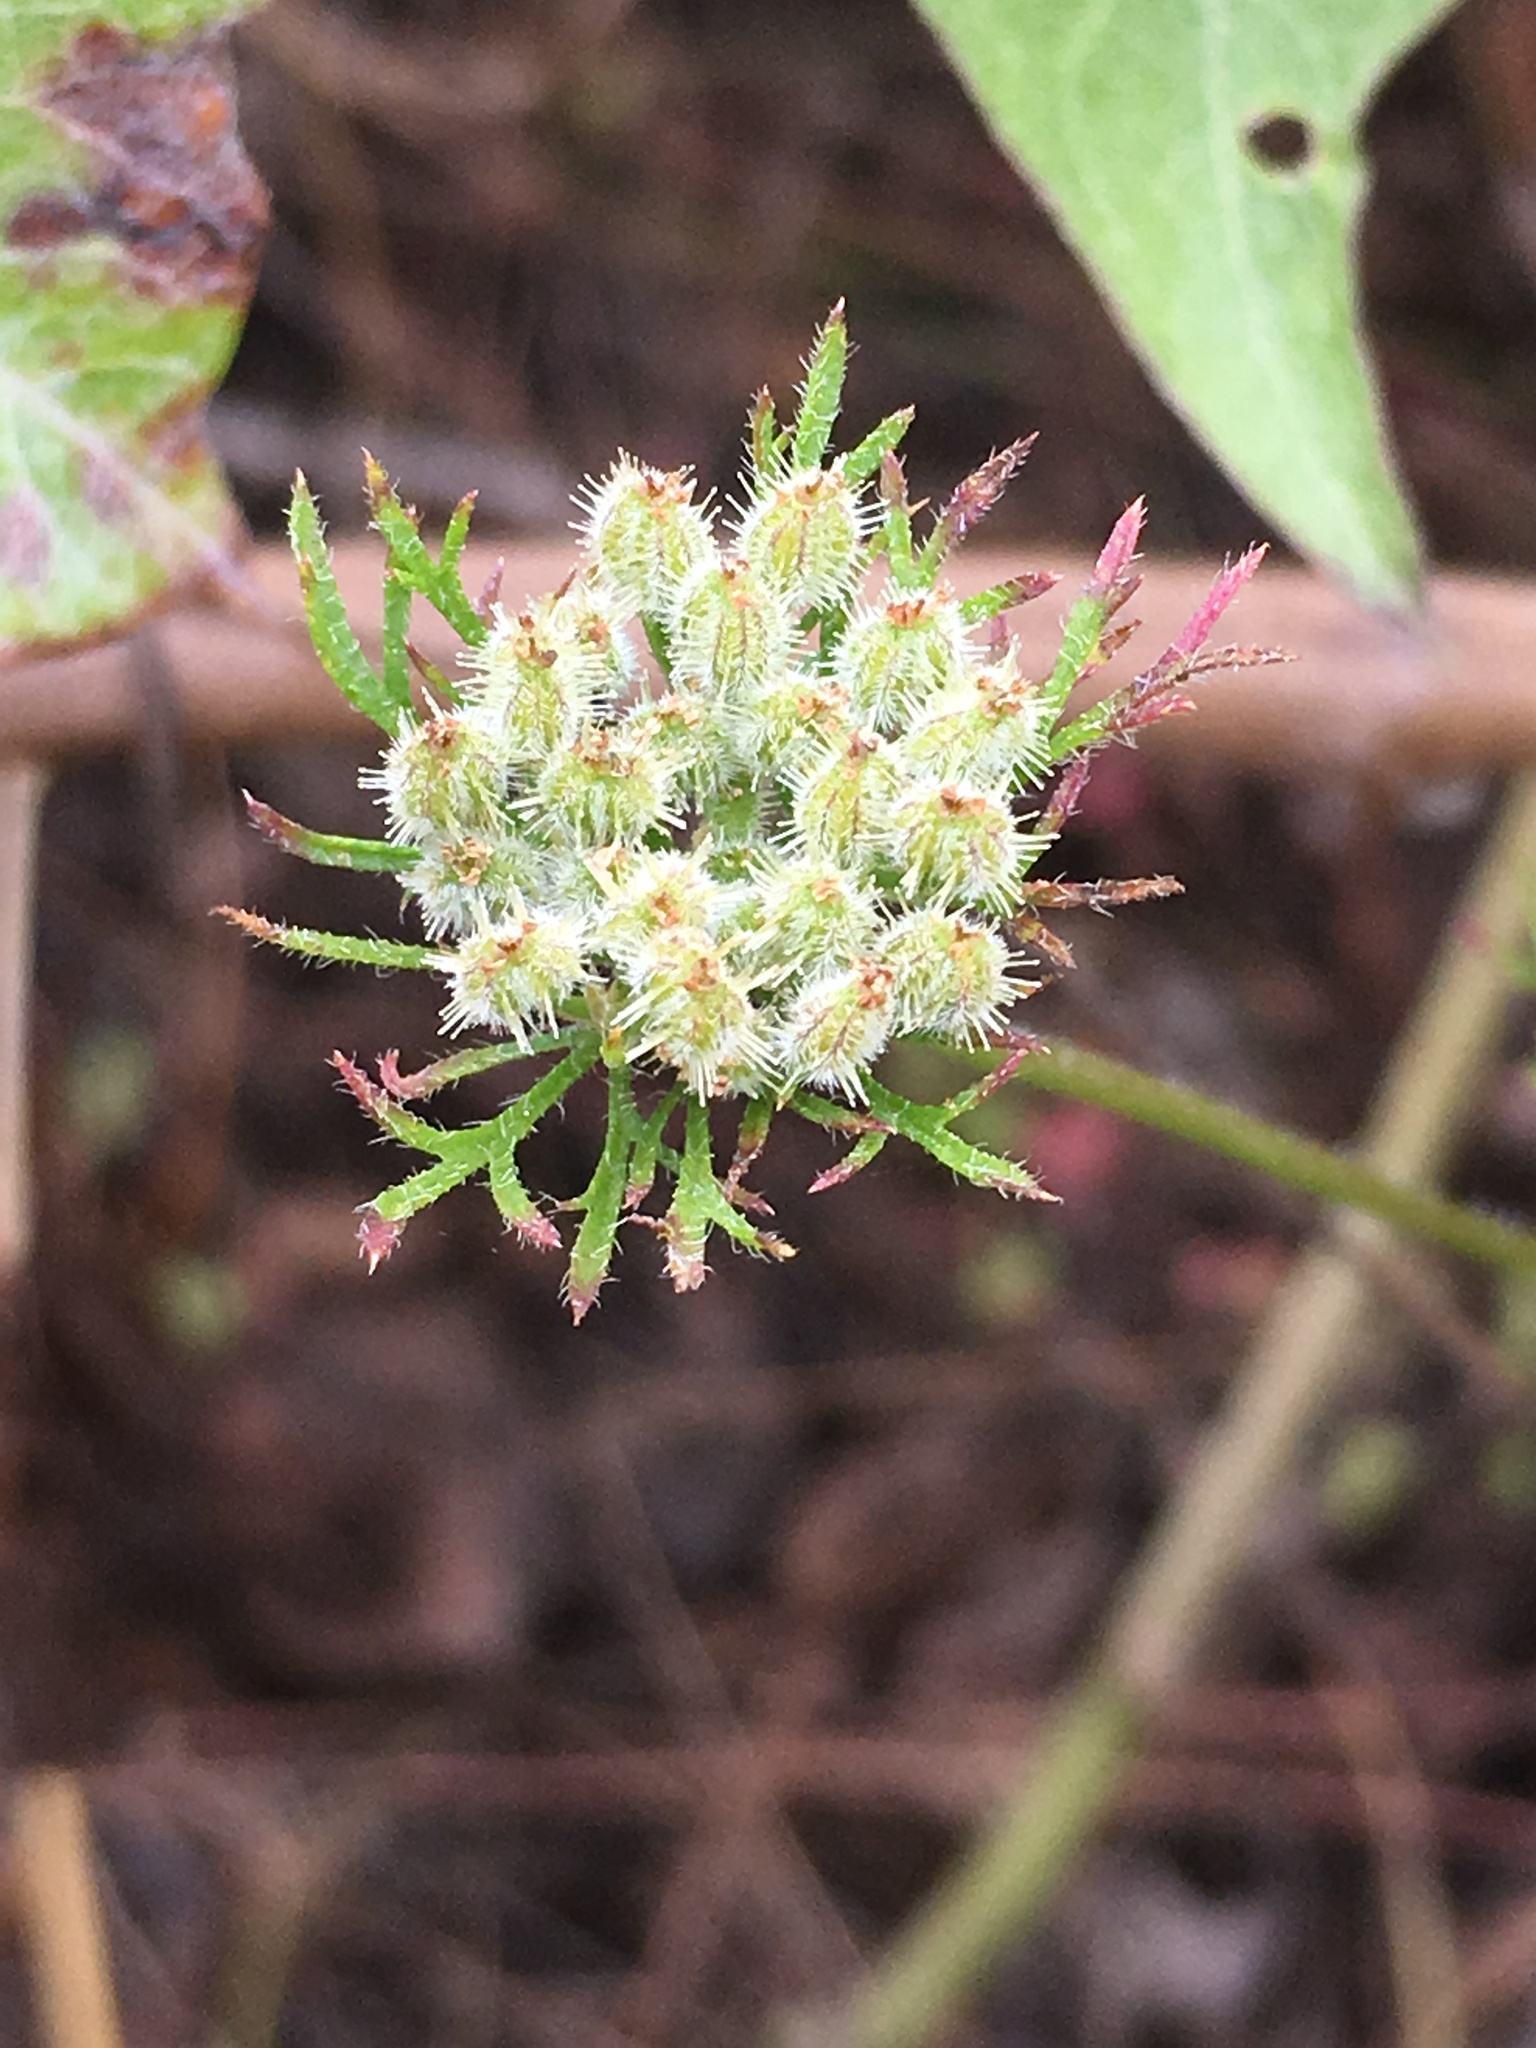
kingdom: Plantae
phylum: Tracheophyta
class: Magnoliopsida
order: Apiales
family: Apiaceae
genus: Daucus
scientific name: Daucus pusillus
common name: Southwest wild carrot
